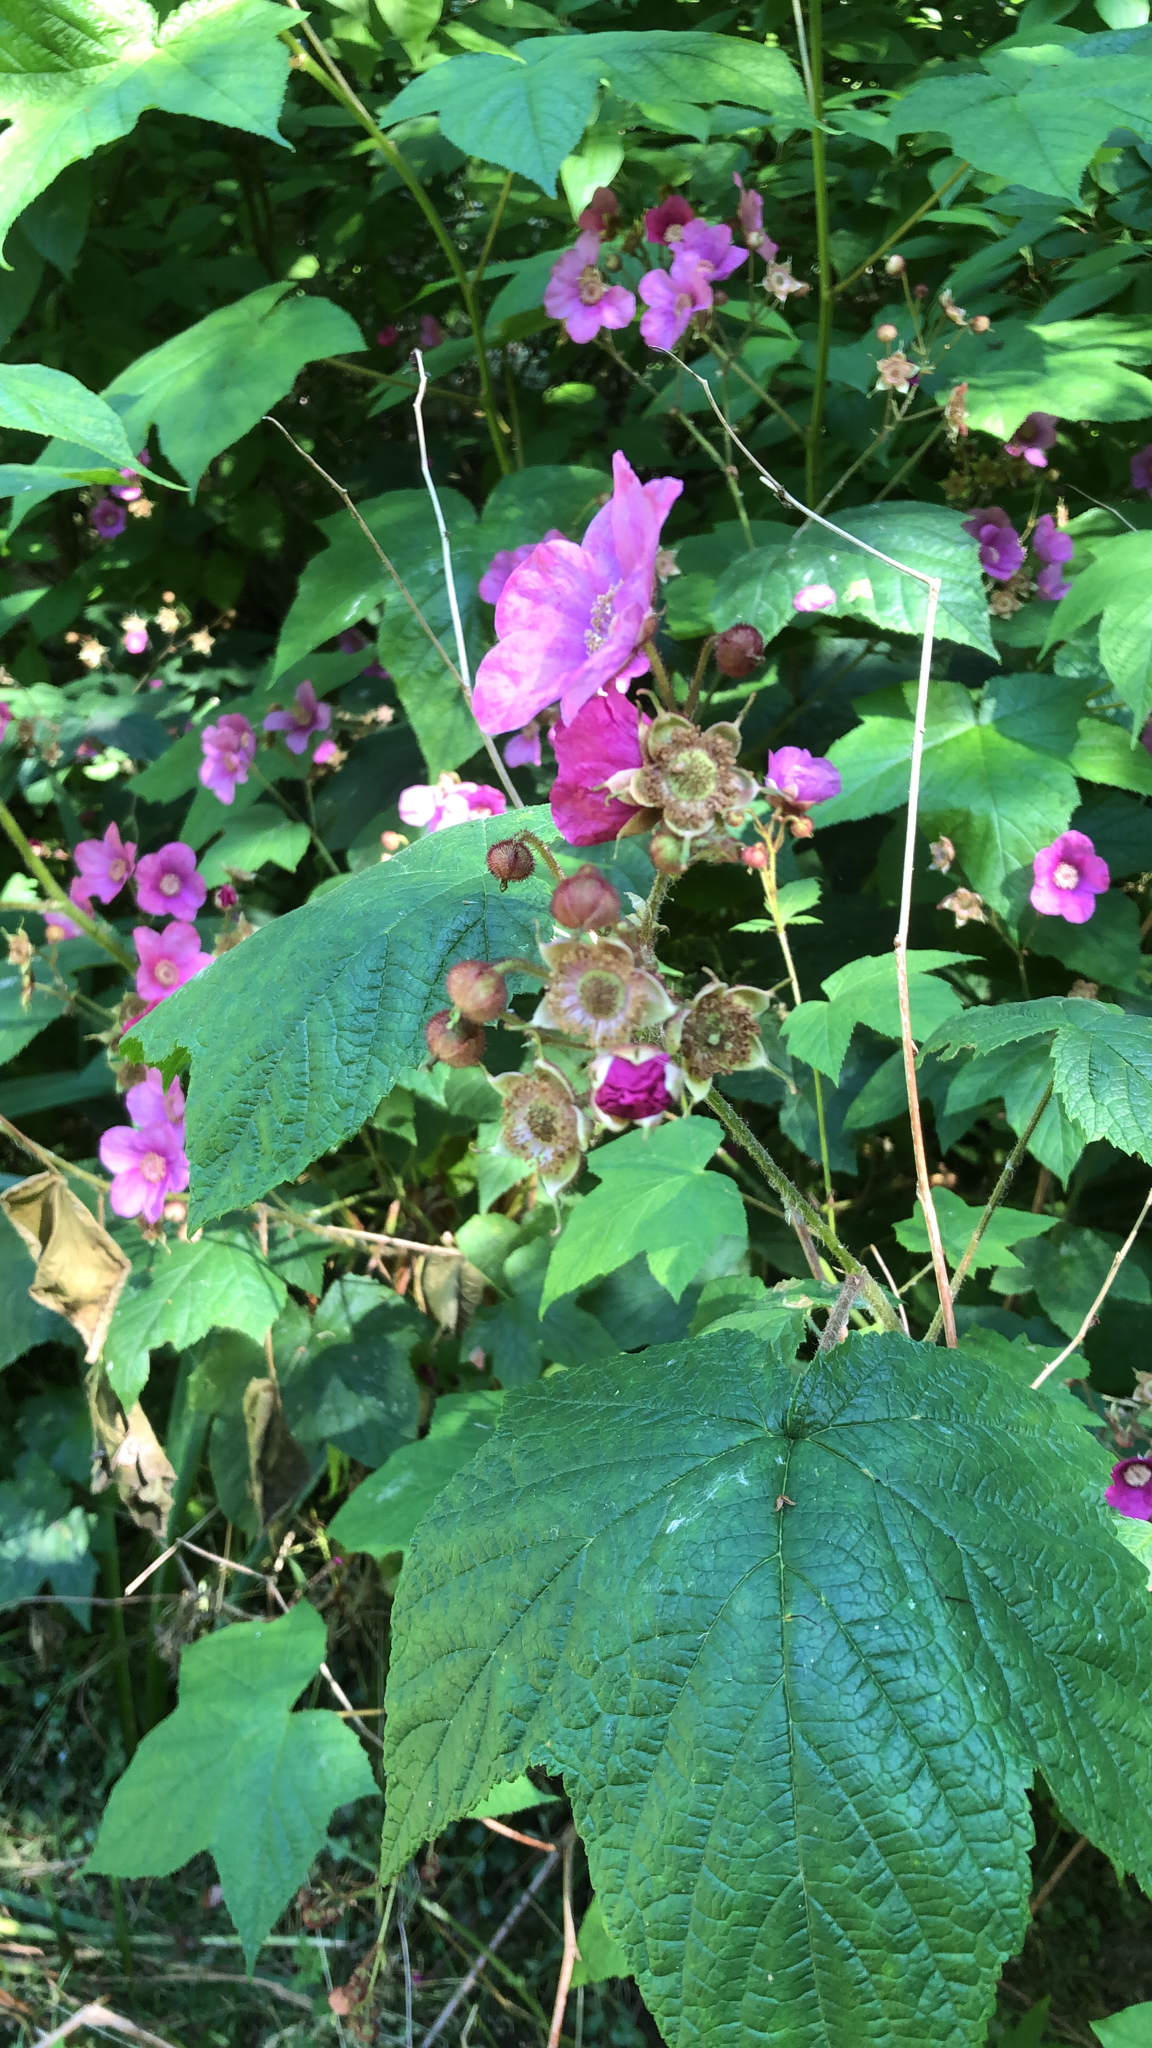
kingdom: Plantae
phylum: Tracheophyta
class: Magnoliopsida
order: Rosales
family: Rosaceae
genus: Rubus
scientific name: Rubus odoratus
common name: Purple-flowered raspberry
